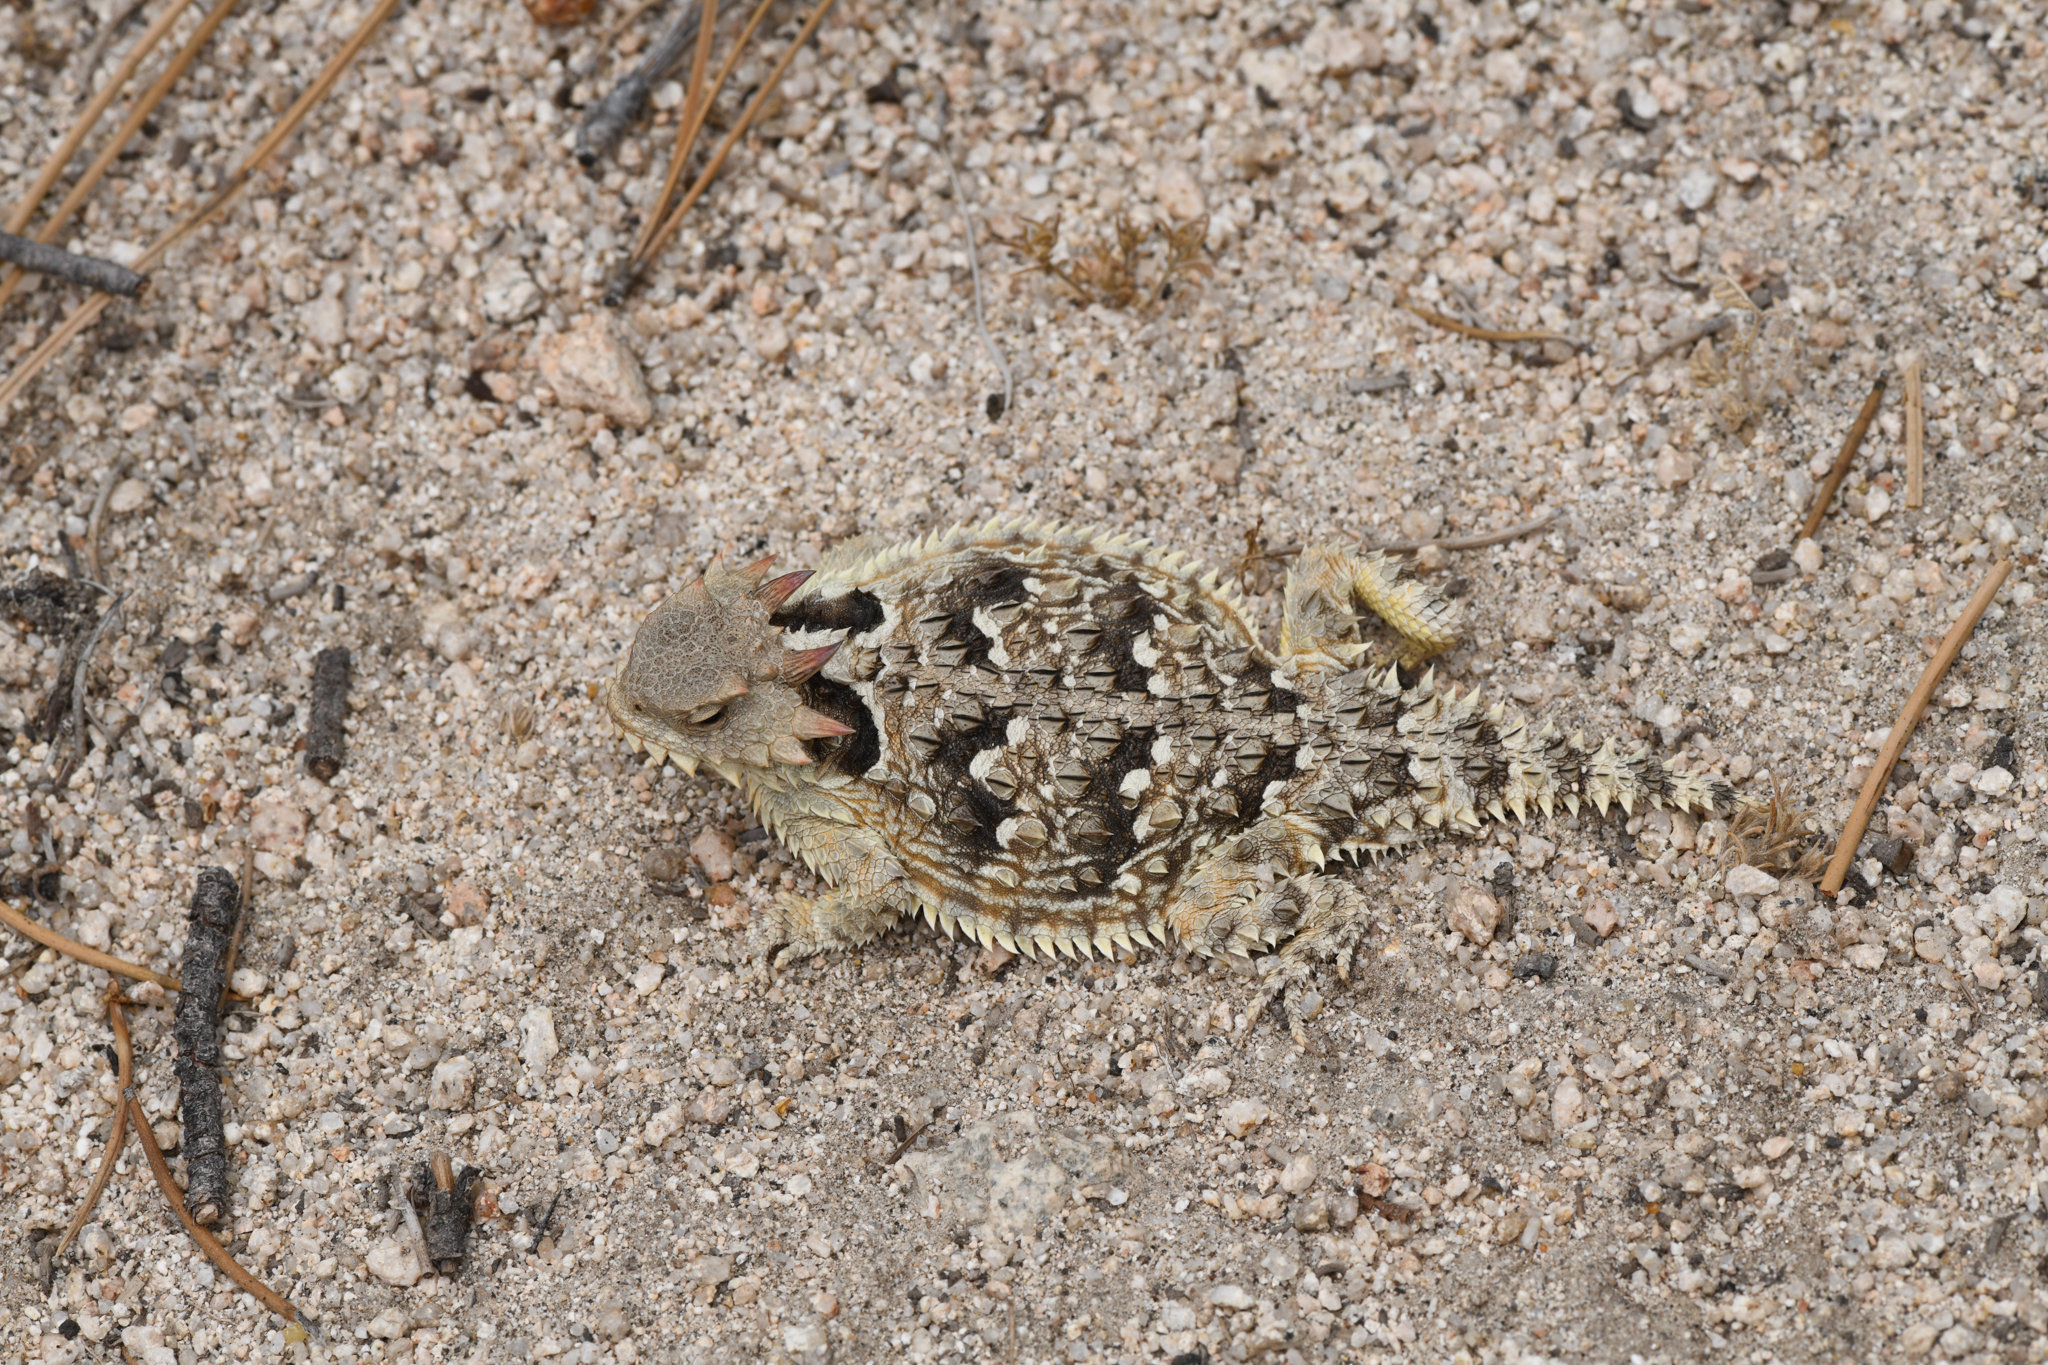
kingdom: Animalia
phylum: Chordata
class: Squamata
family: Phrynosomatidae
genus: Phrynosoma
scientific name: Phrynosoma blainvillii
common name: San diego horned lizard
